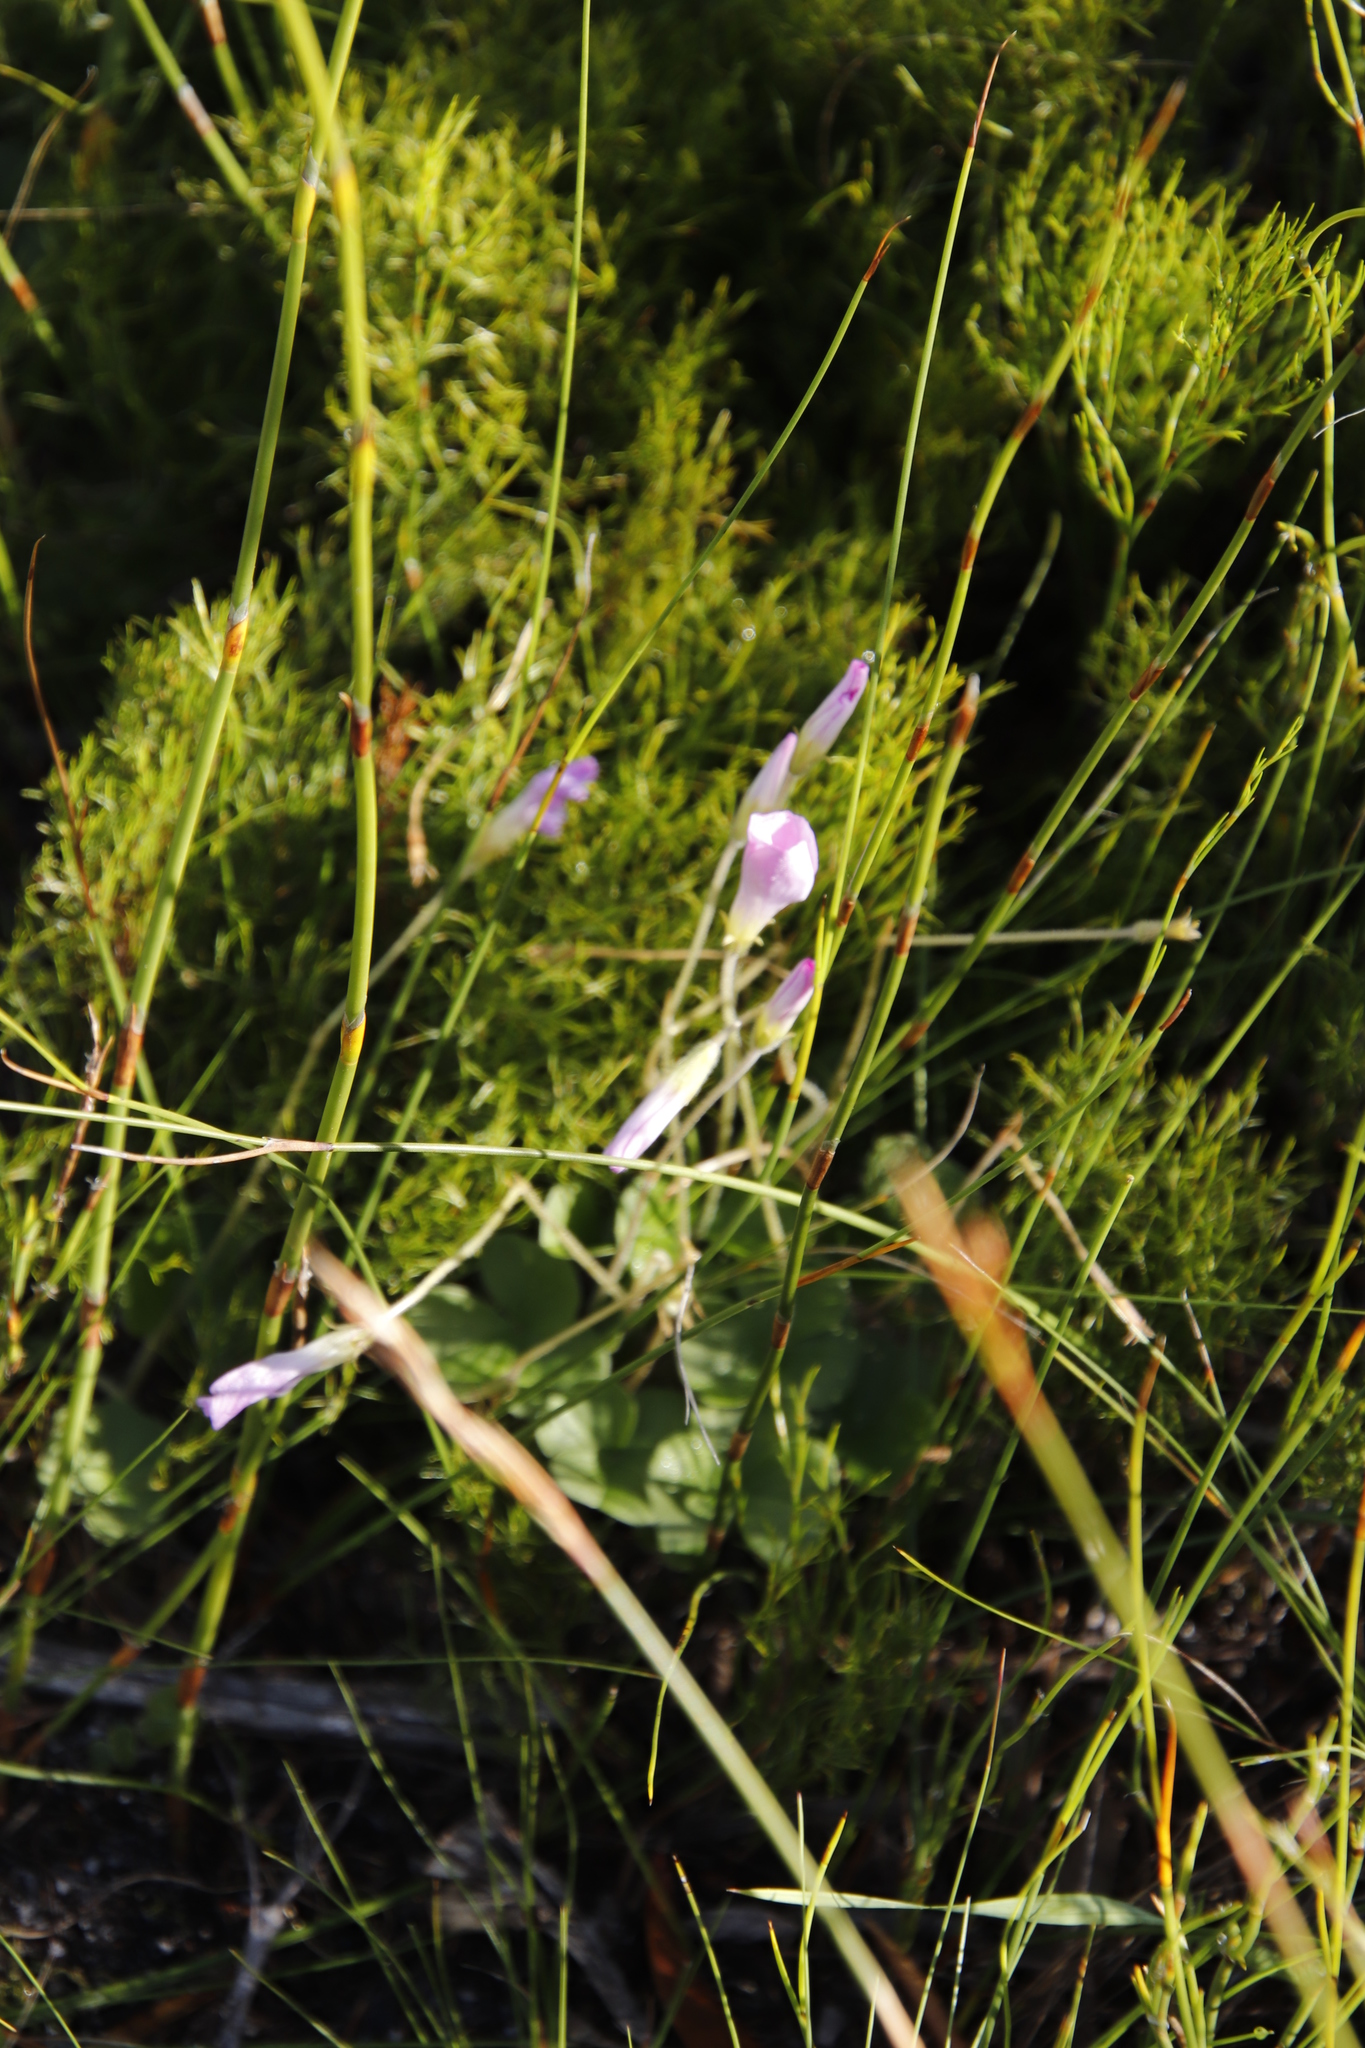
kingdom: Plantae
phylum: Tracheophyta
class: Magnoliopsida
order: Oxalidales
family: Oxalidaceae
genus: Oxalis
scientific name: Oxalis truncatula
